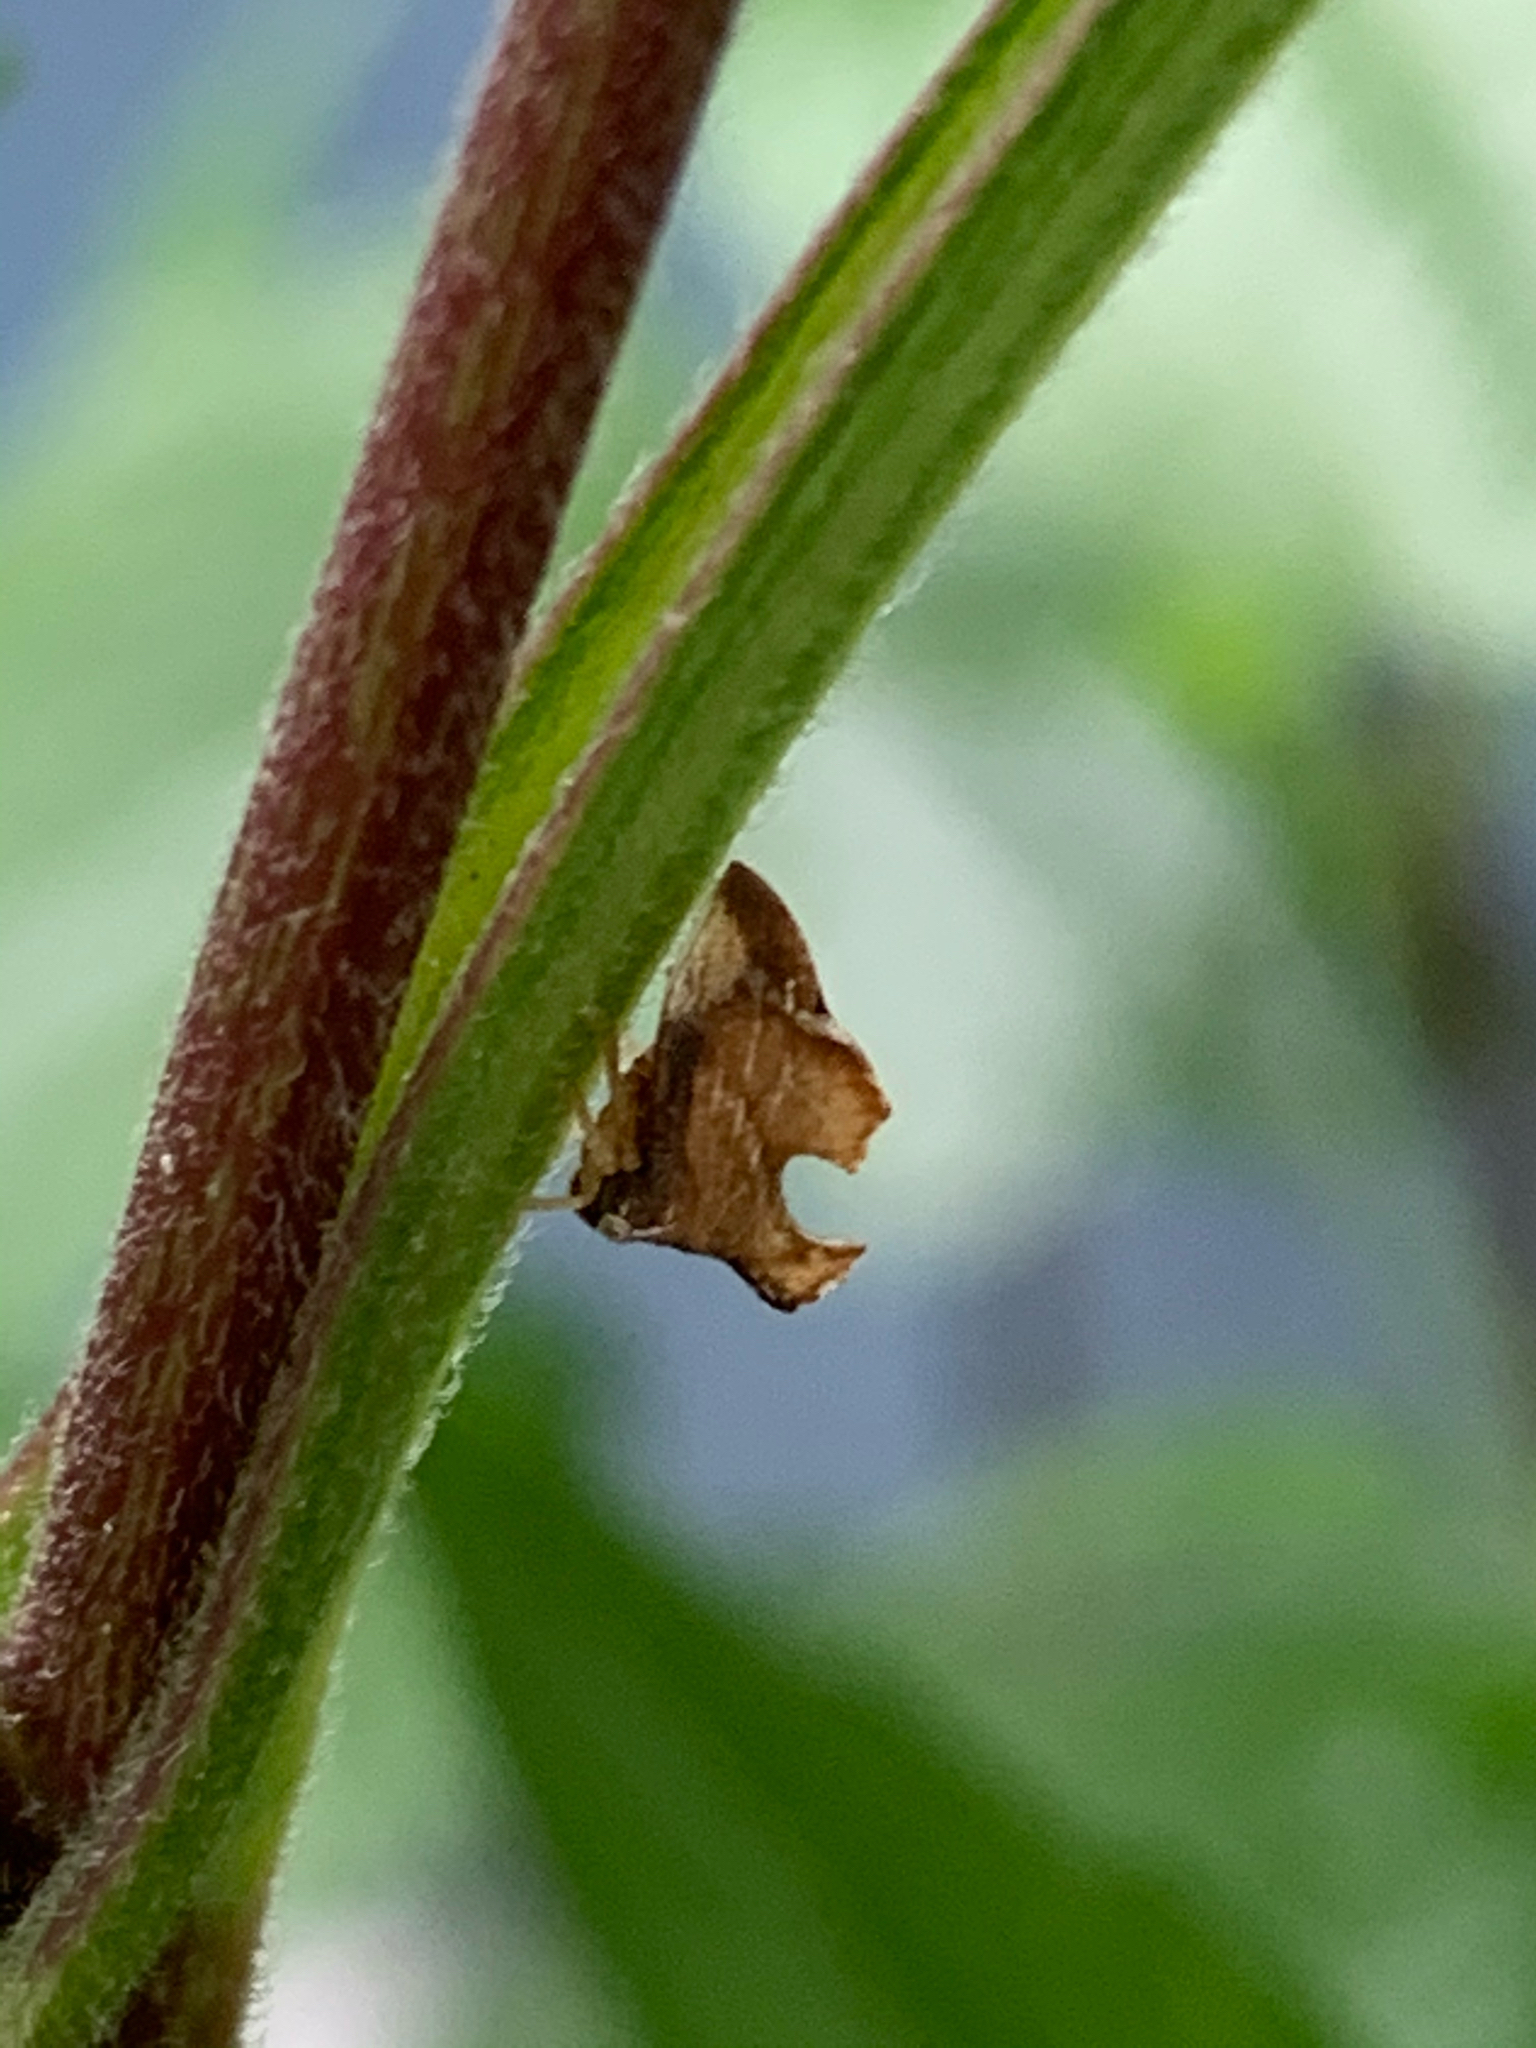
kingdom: Animalia
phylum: Arthropoda
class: Insecta
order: Hemiptera
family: Membracidae
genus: Entylia
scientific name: Entylia carinata
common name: Keeled treehopper
